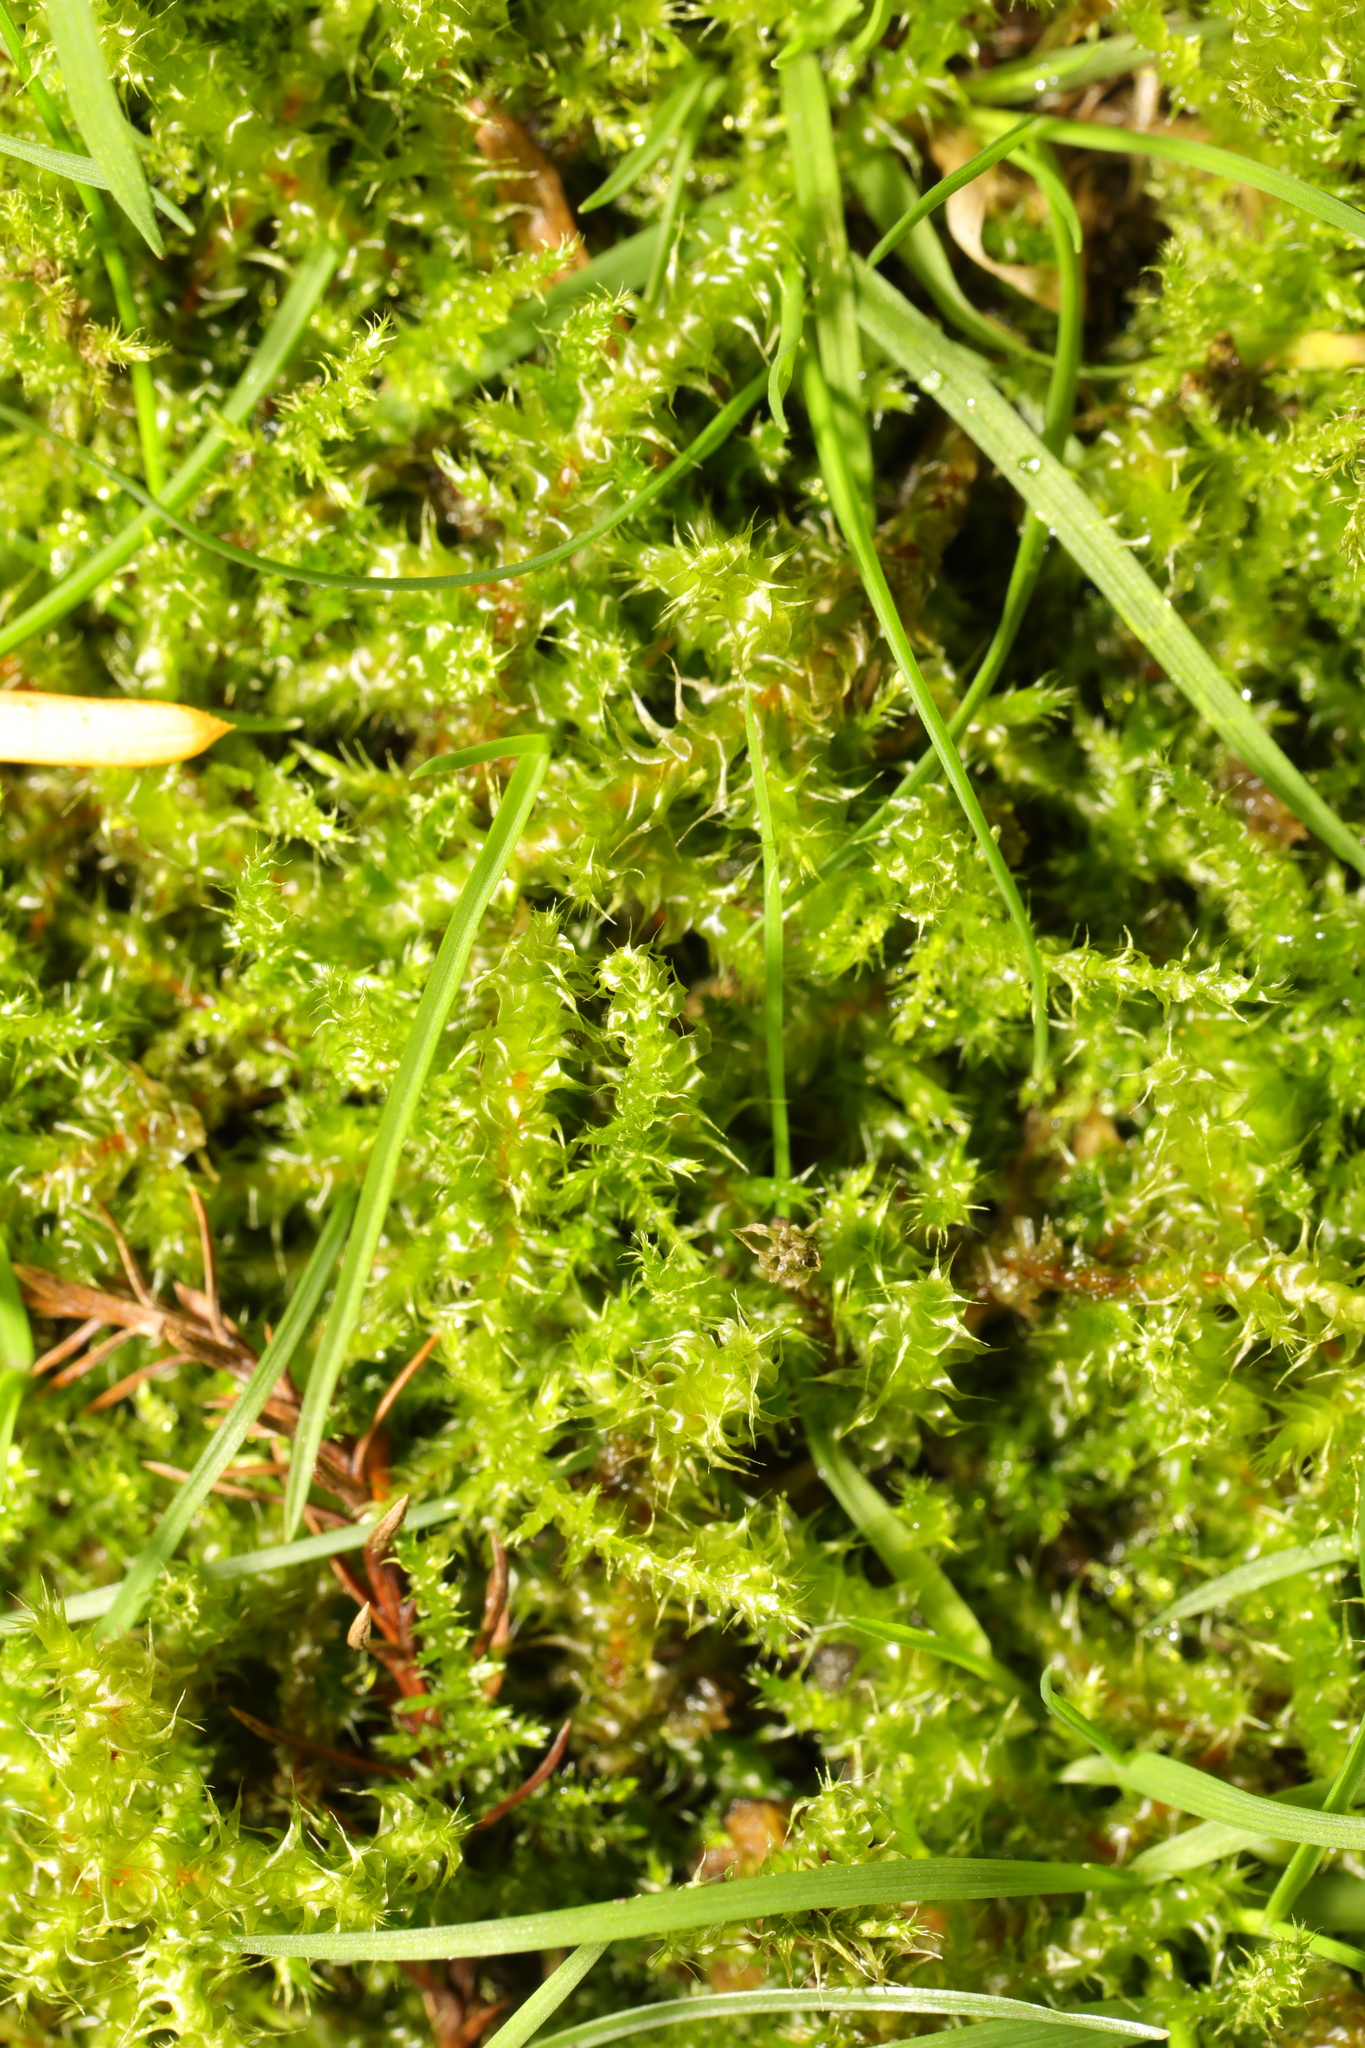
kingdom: Plantae
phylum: Bryophyta
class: Bryopsida
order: Hypnales
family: Hylocomiaceae
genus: Rhytidiadelphus
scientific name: Rhytidiadelphus squarrosus
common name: Springy turf-moss
